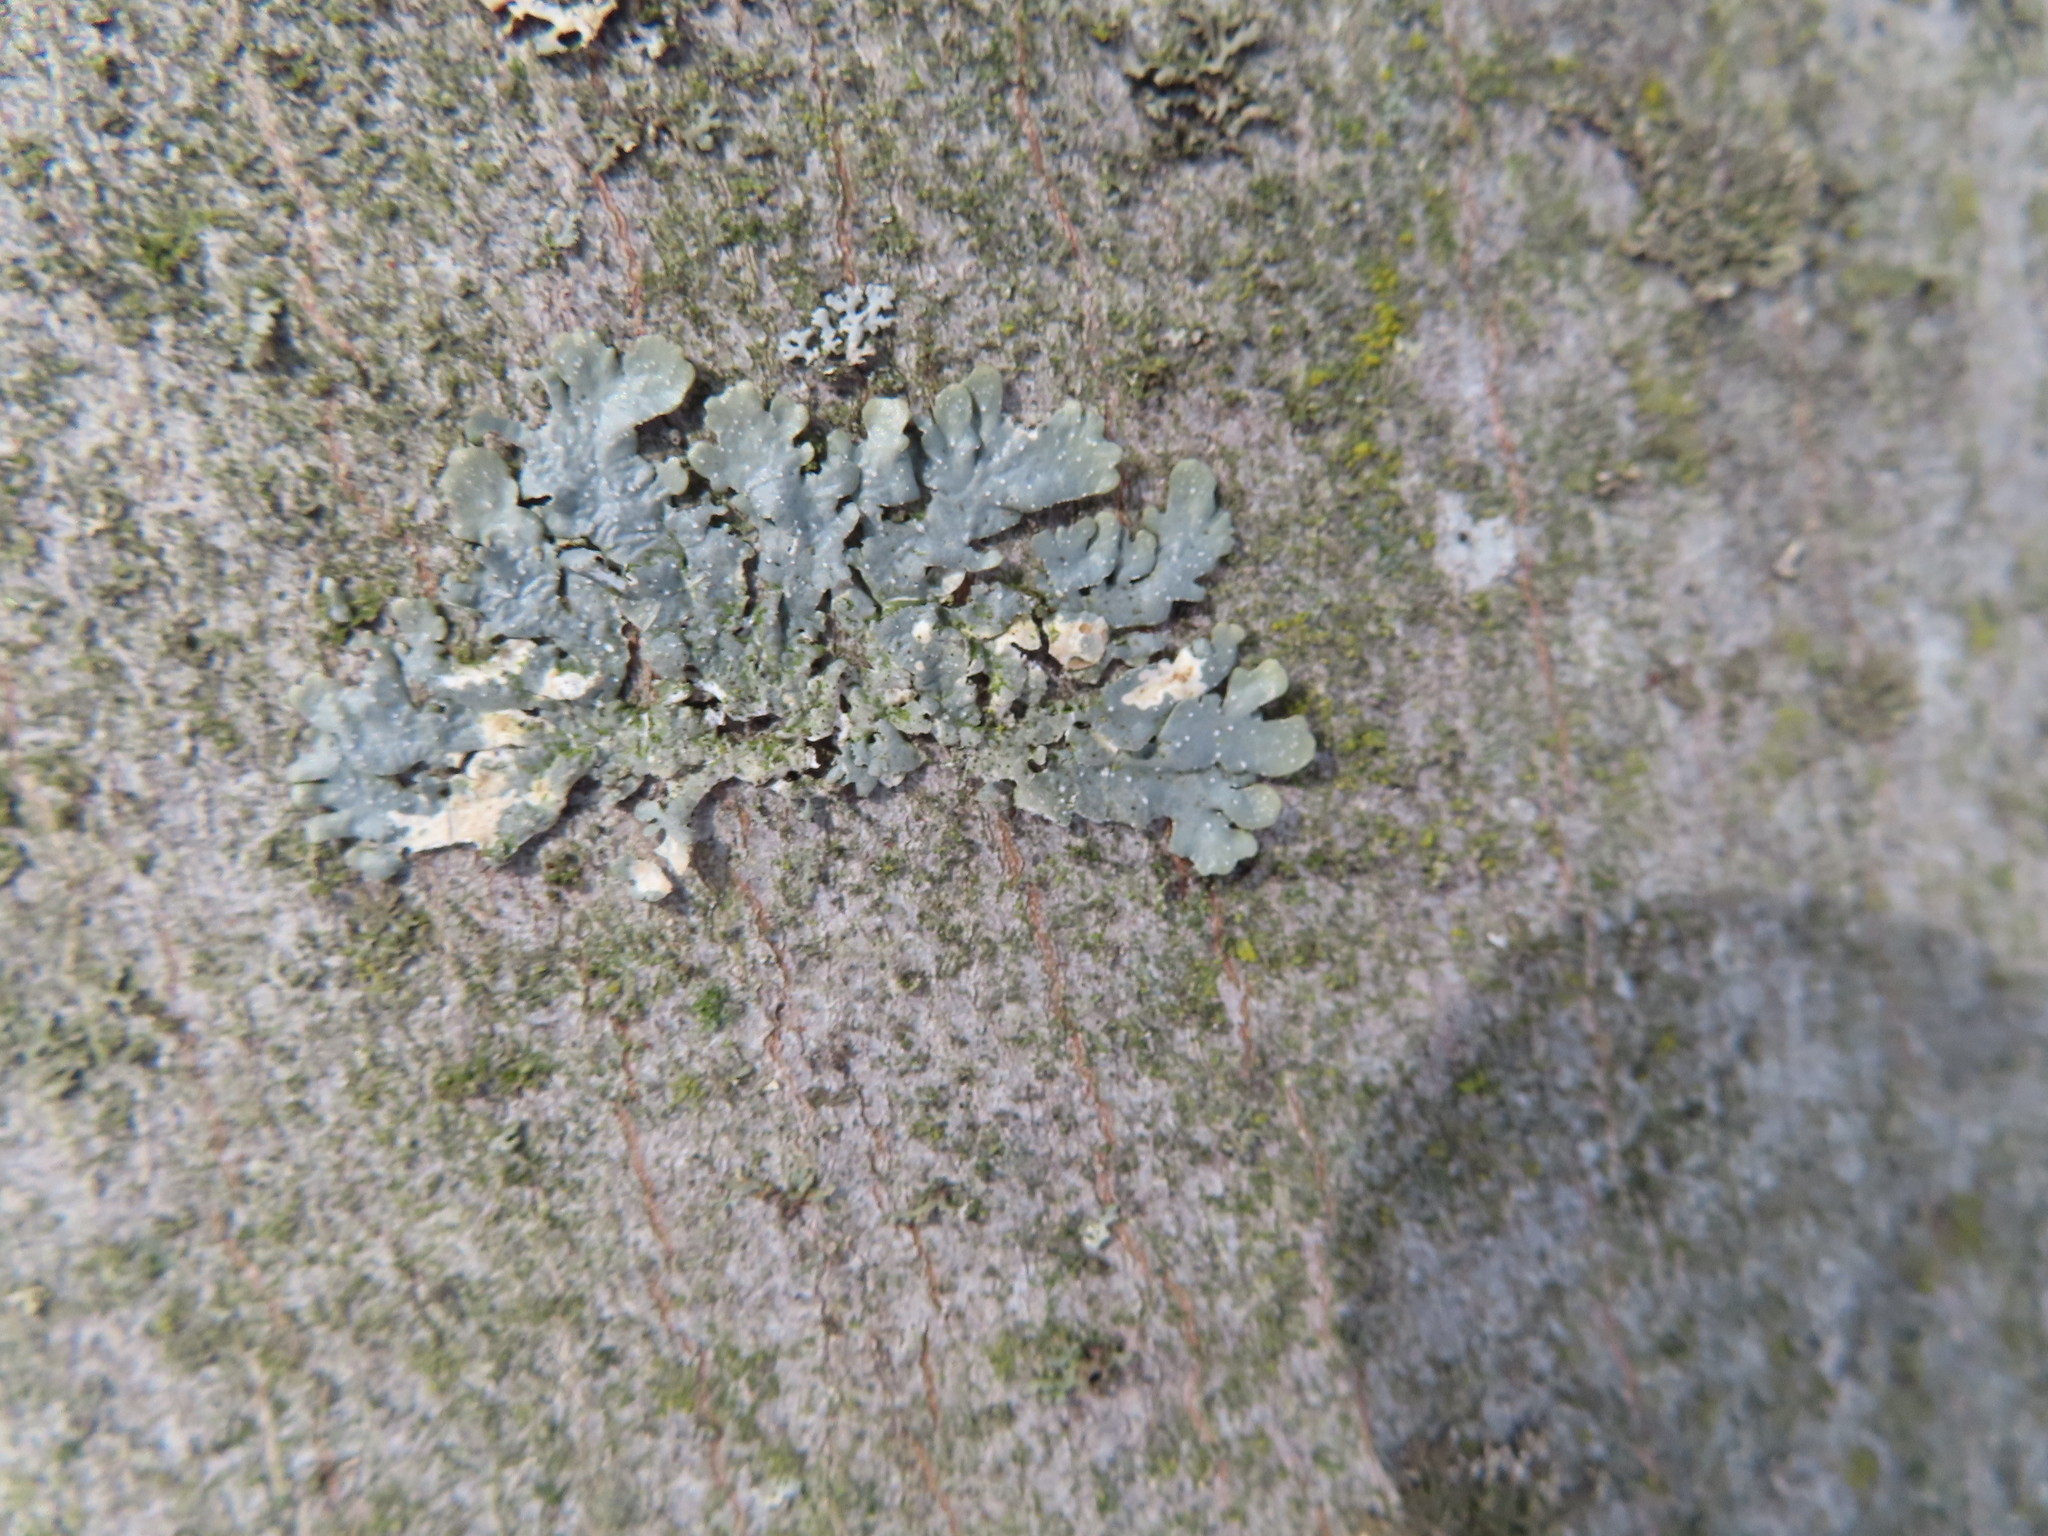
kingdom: Fungi
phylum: Ascomycota
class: Lecanoromycetes
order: Lecanorales
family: Parmeliaceae
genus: Punctelia
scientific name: Punctelia rudecta
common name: Rough speckled shield lichen
